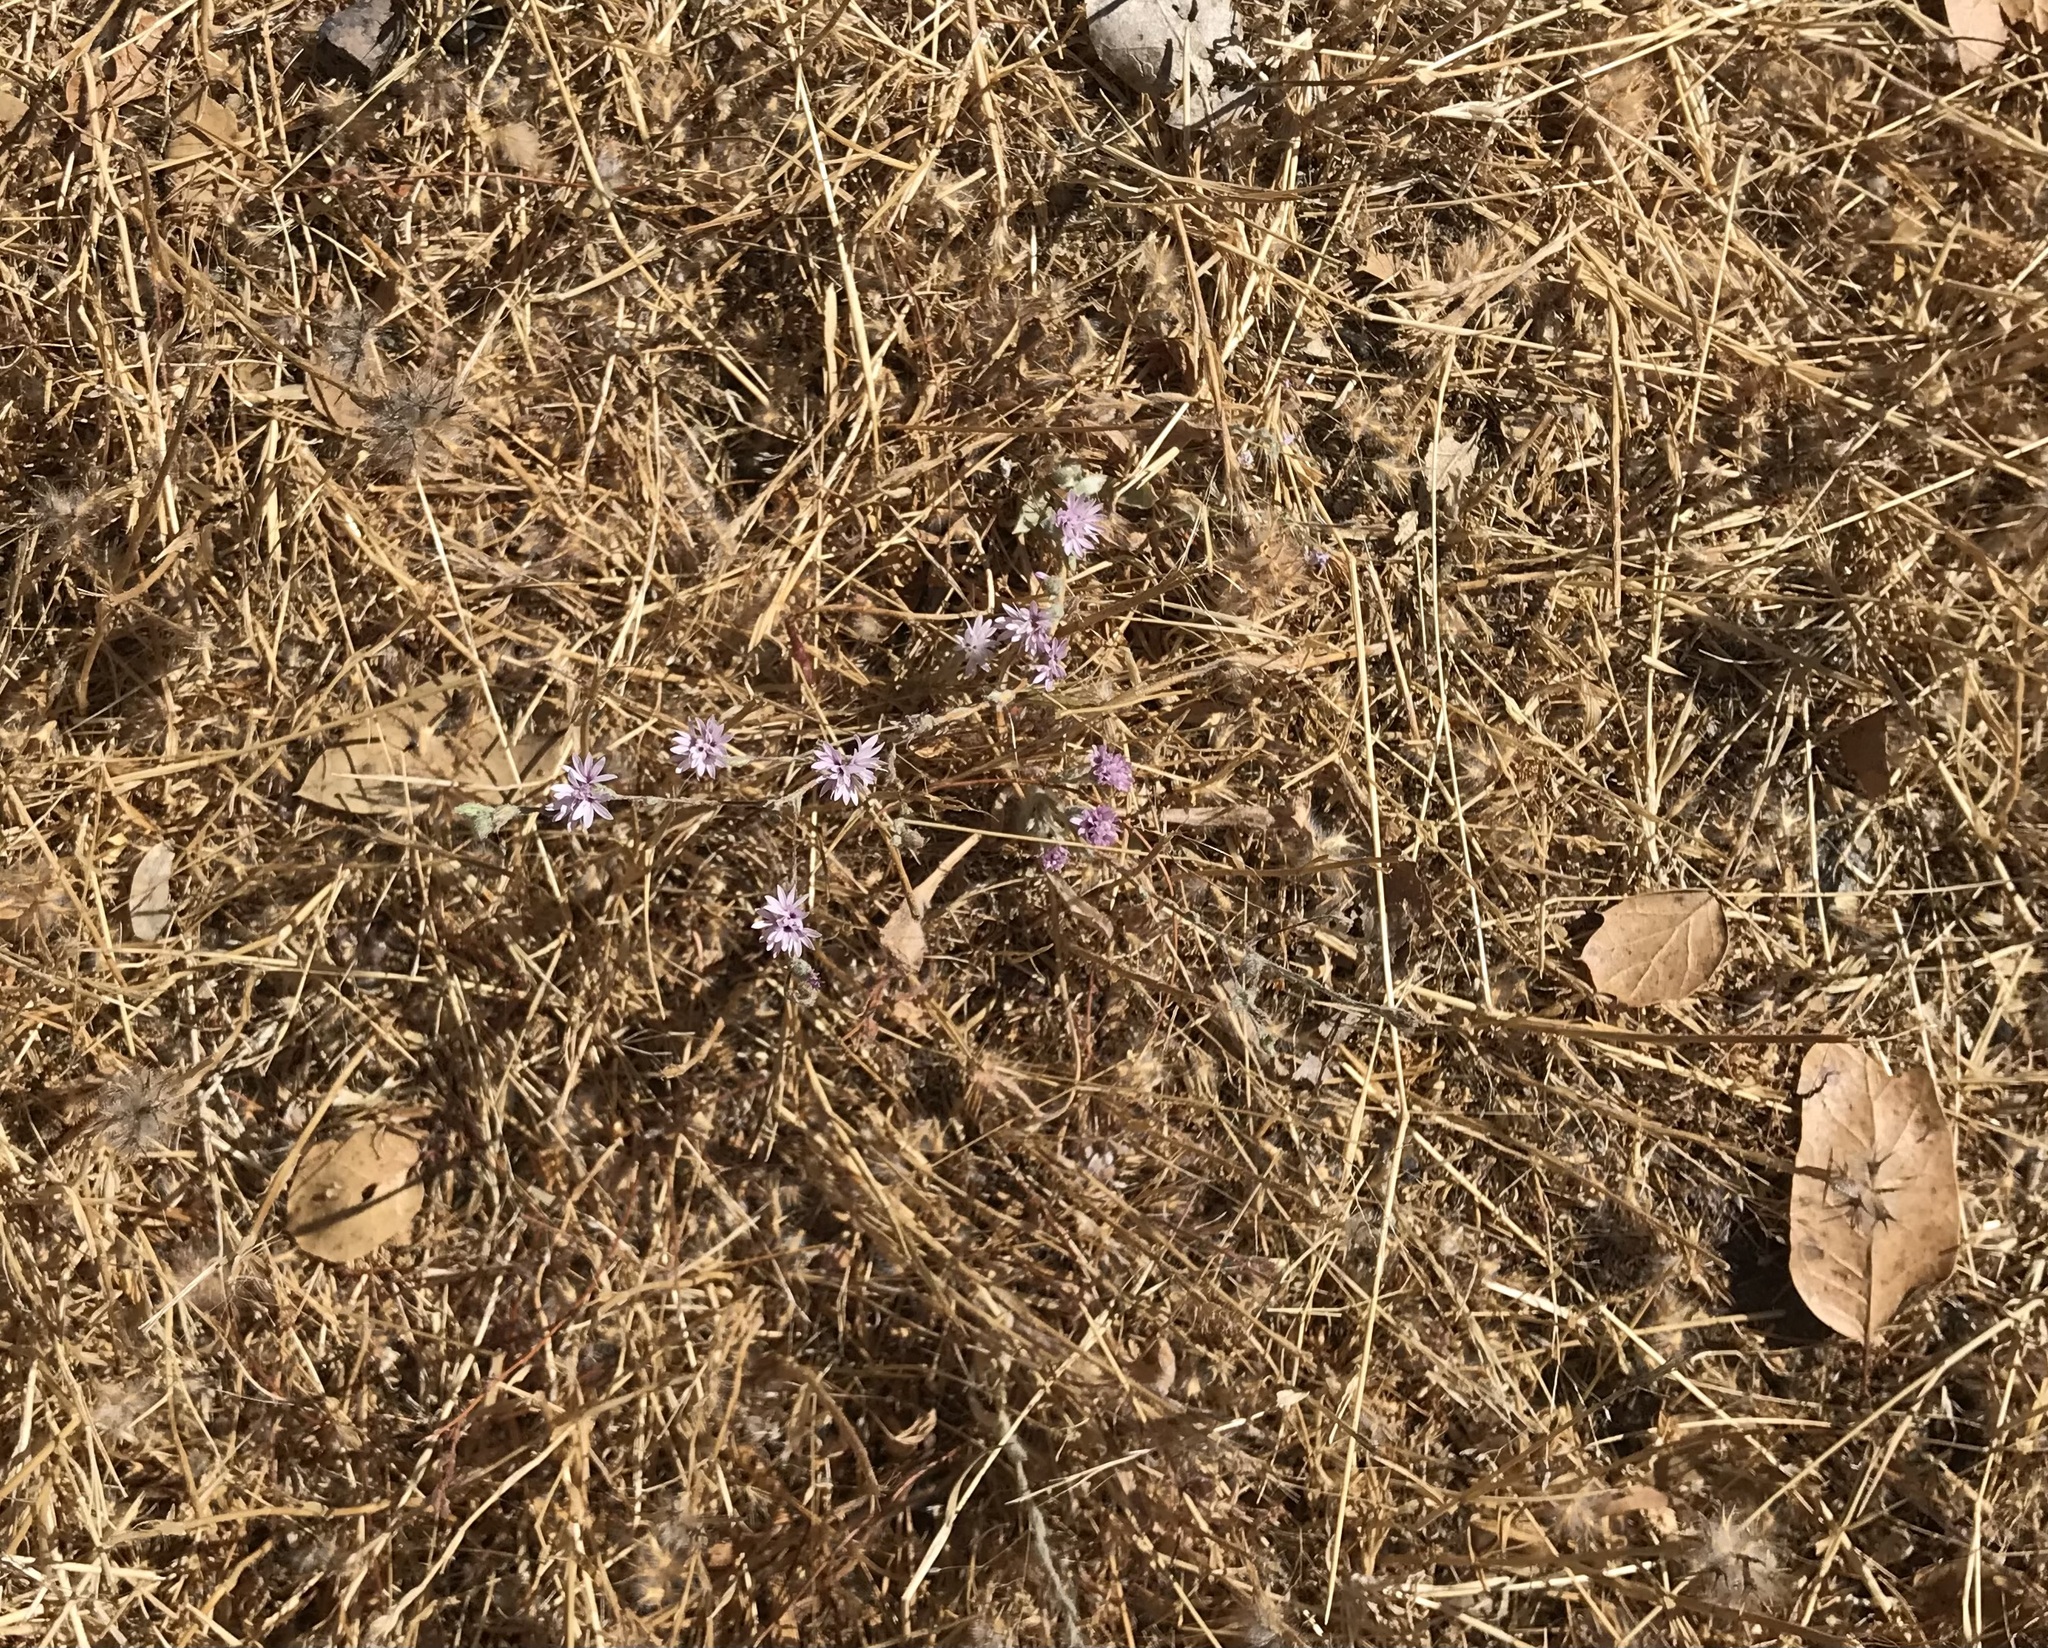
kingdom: Plantae
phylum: Tracheophyta
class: Magnoliopsida
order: Asterales
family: Asteraceae
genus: Lessingia
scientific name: Lessingia hololeuca
